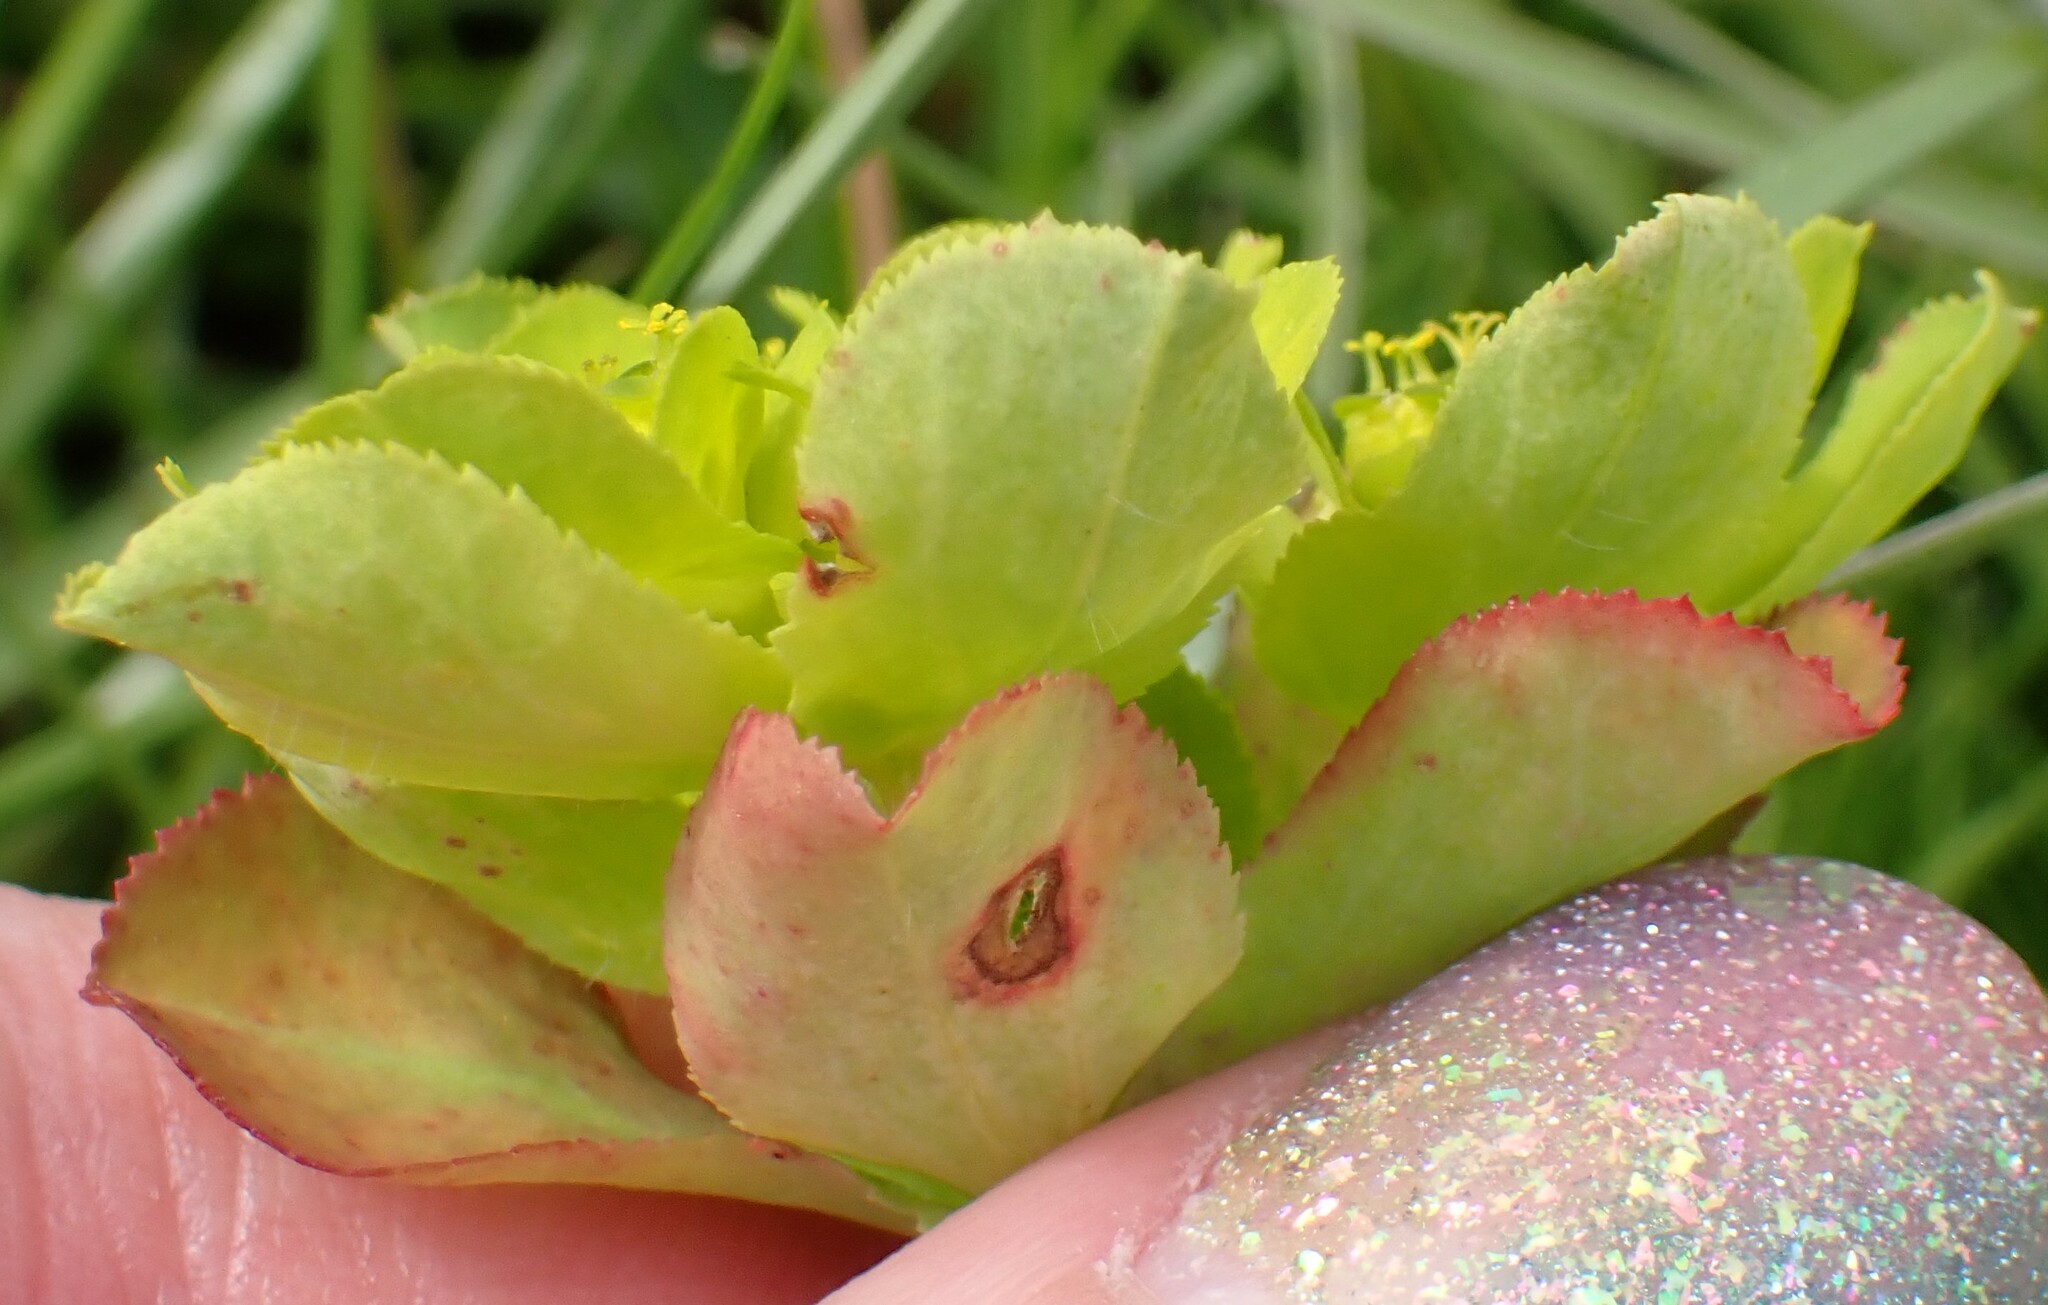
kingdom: Plantae
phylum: Tracheophyta
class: Magnoliopsida
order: Malpighiales
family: Euphorbiaceae
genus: Euphorbia
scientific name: Euphorbia helioscopia
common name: Sun spurge
